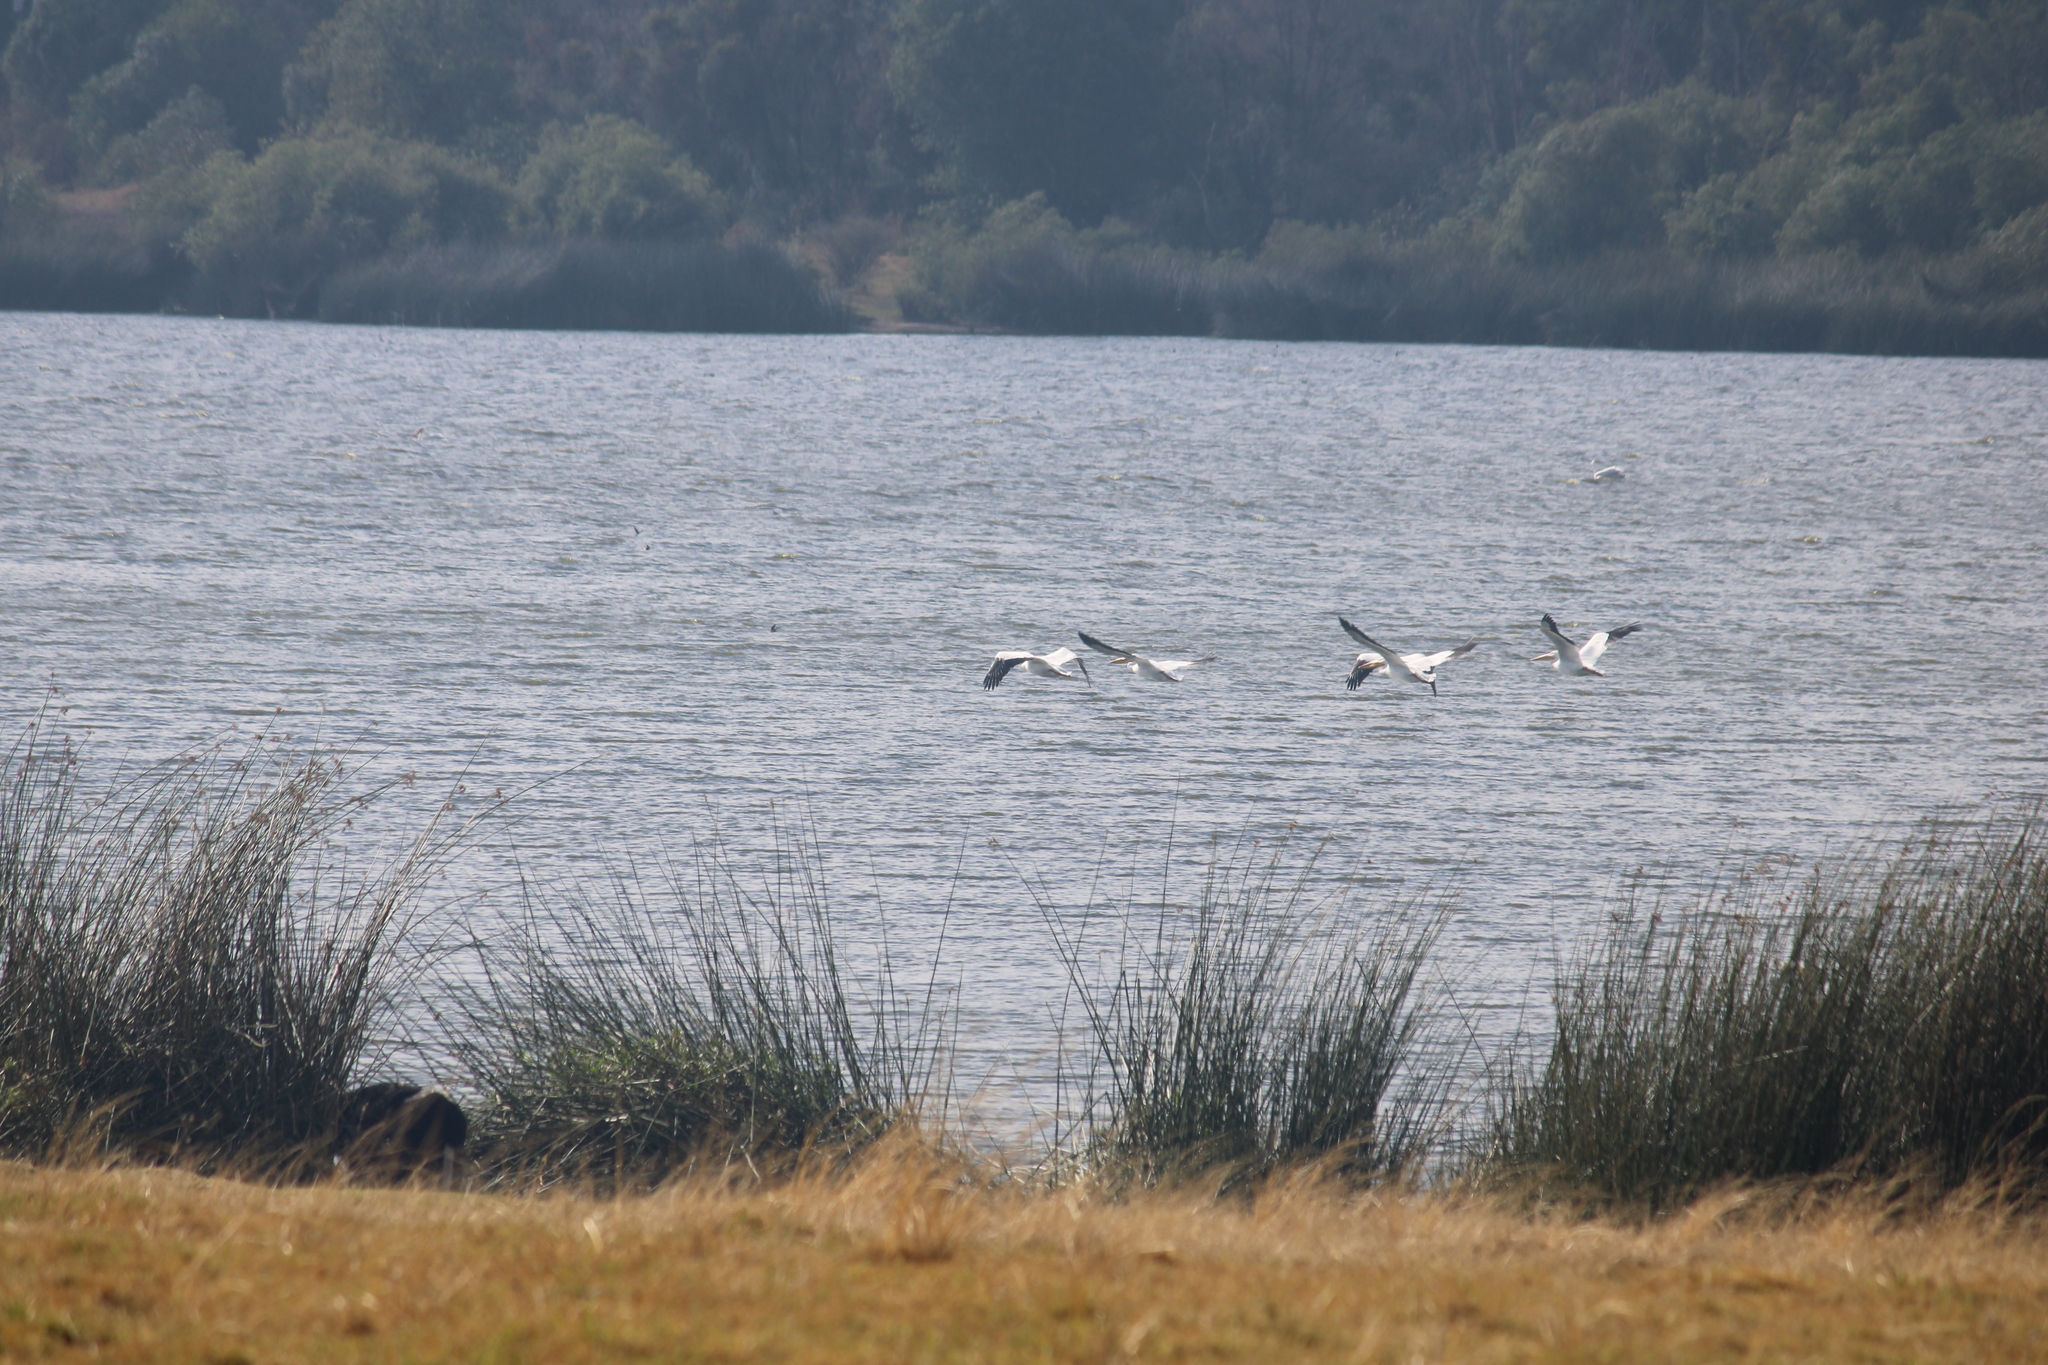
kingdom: Animalia
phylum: Chordata
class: Aves
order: Pelecaniformes
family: Pelecanidae
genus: Pelecanus
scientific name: Pelecanus erythrorhynchos
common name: American white pelican
